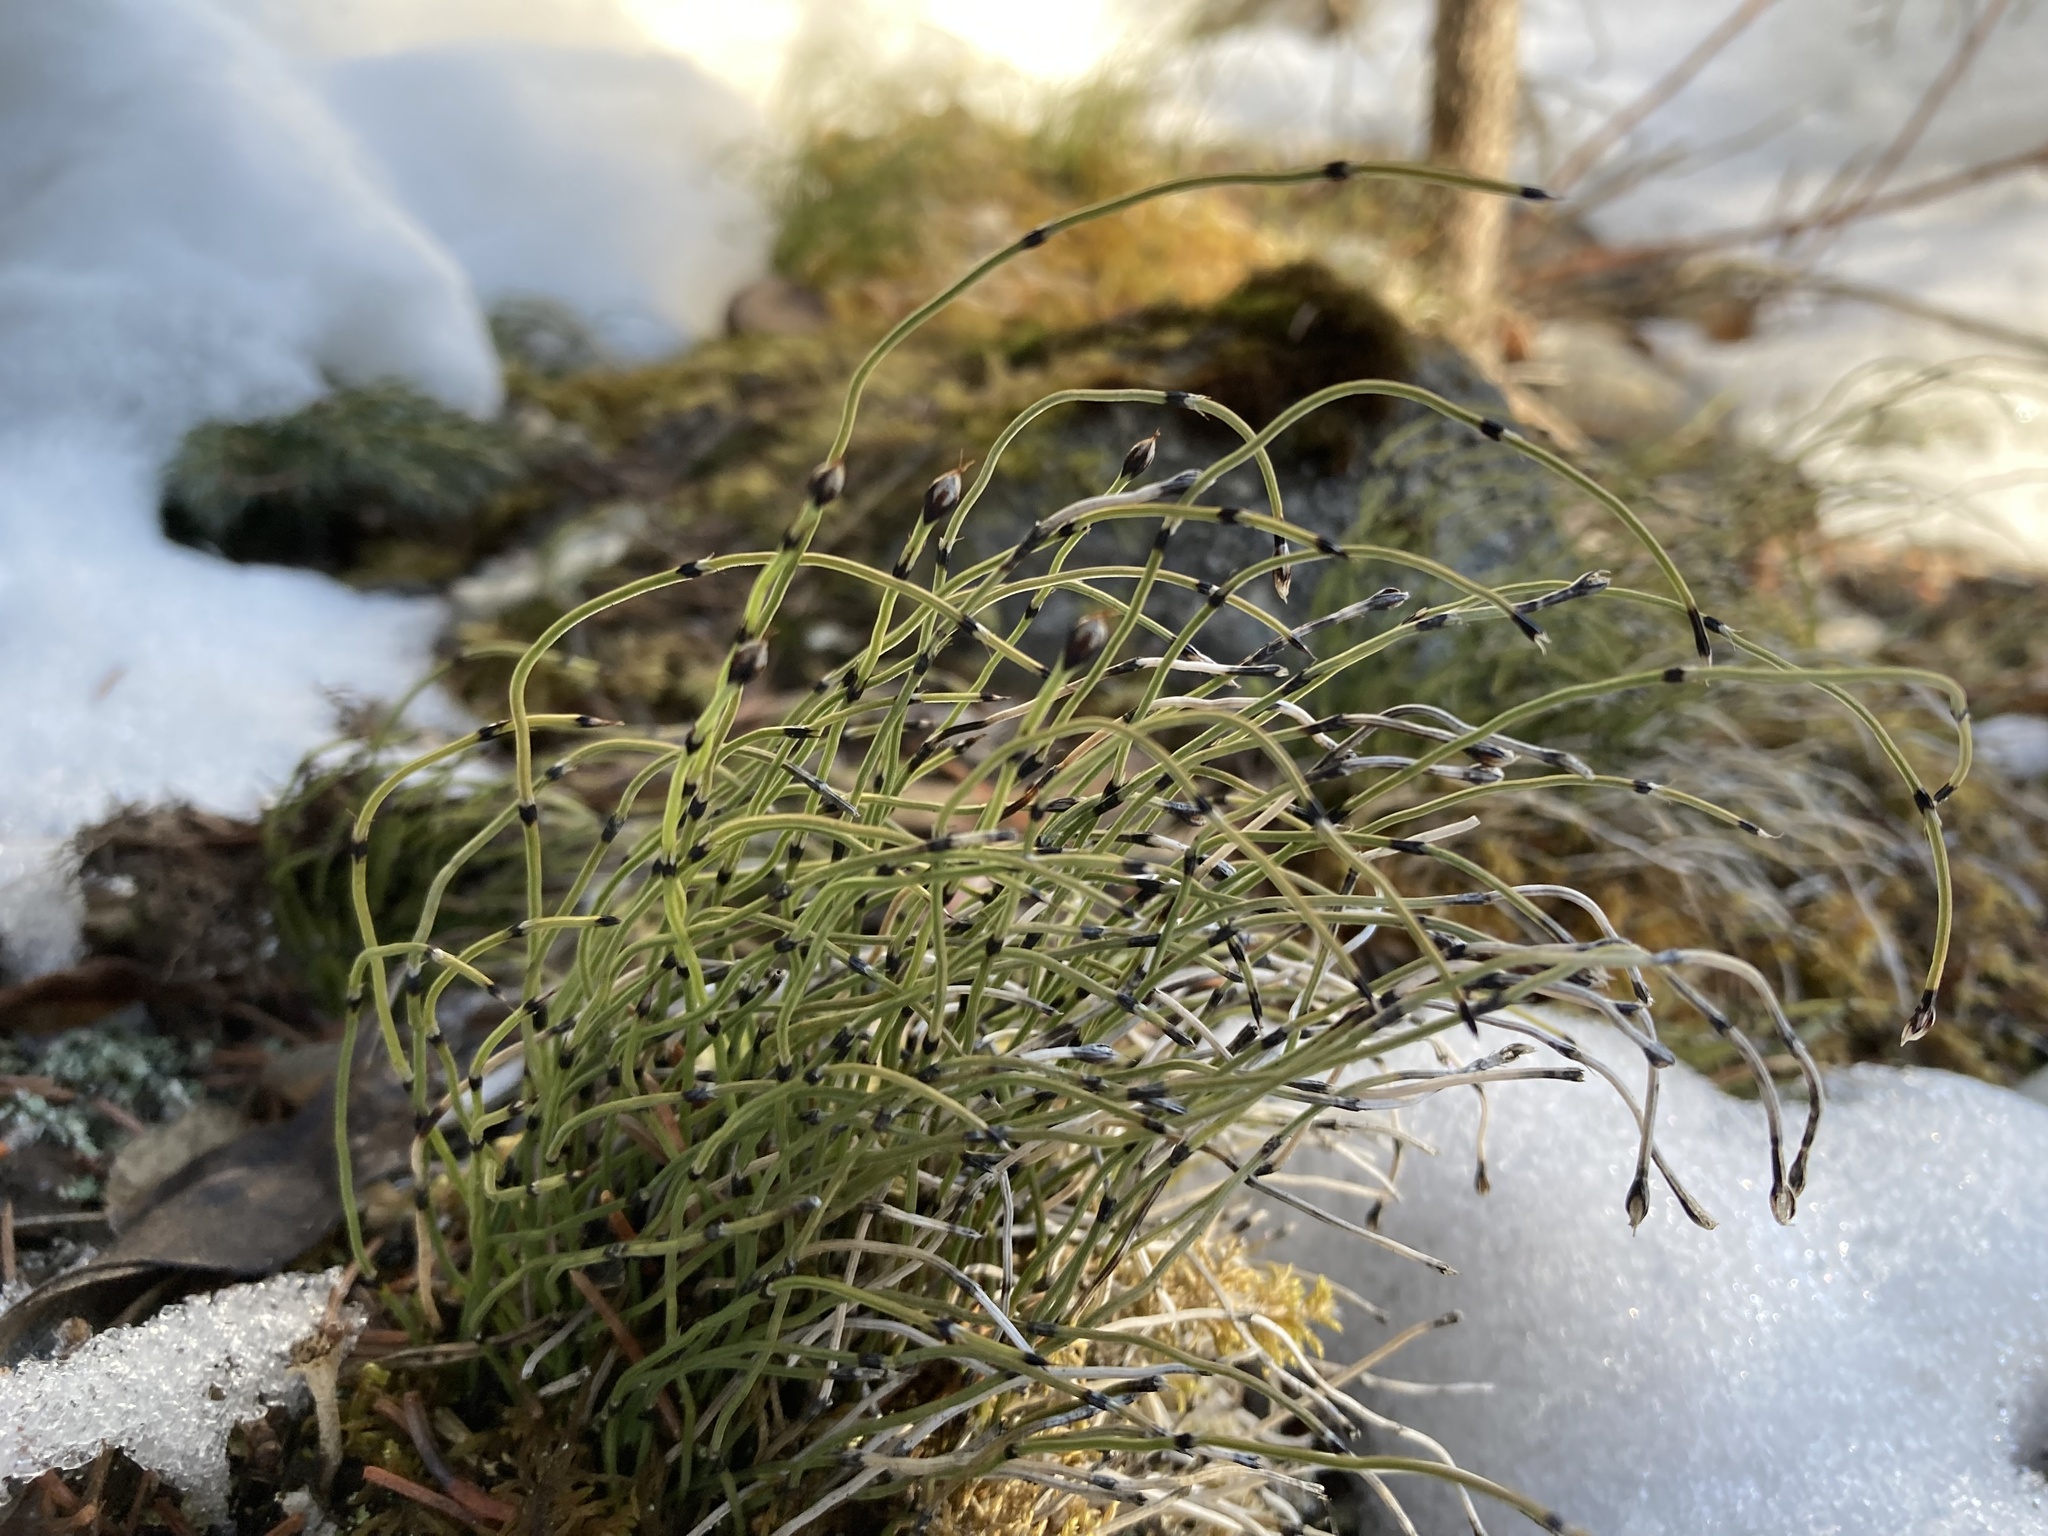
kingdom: Plantae
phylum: Tracheophyta
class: Polypodiopsida
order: Equisetales
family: Equisetaceae
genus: Equisetum
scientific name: Equisetum scirpoides
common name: Delicate horsetail
